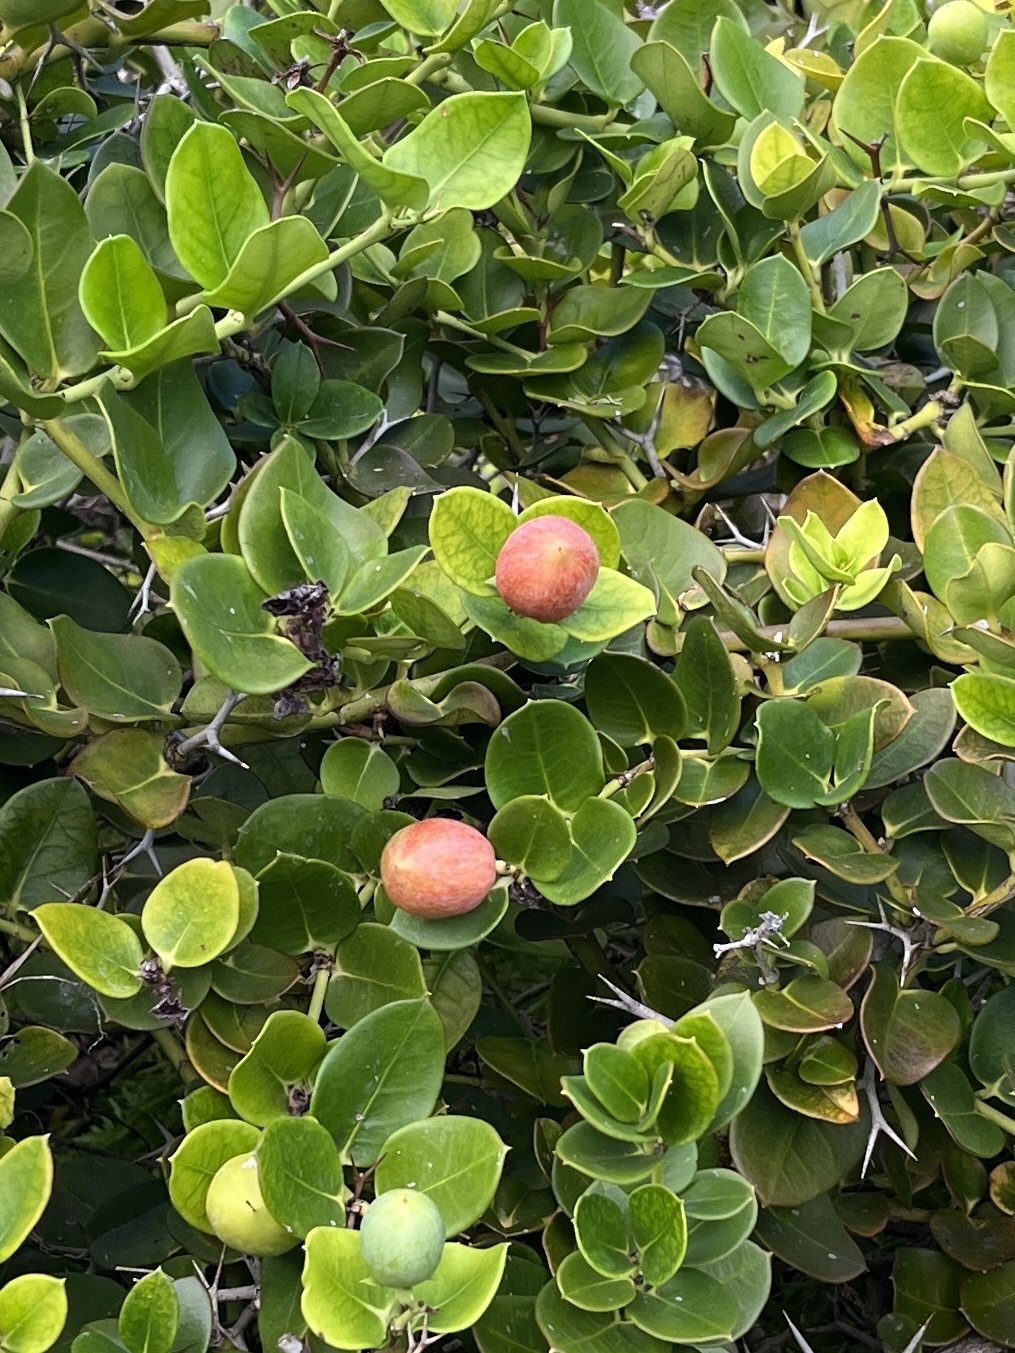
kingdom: Plantae
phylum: Tracheophyta
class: Magnoliopsida
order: Gentianales
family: Apocynaceae
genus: Carissa
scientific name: Carissa macrocarpa
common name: Natal plum
